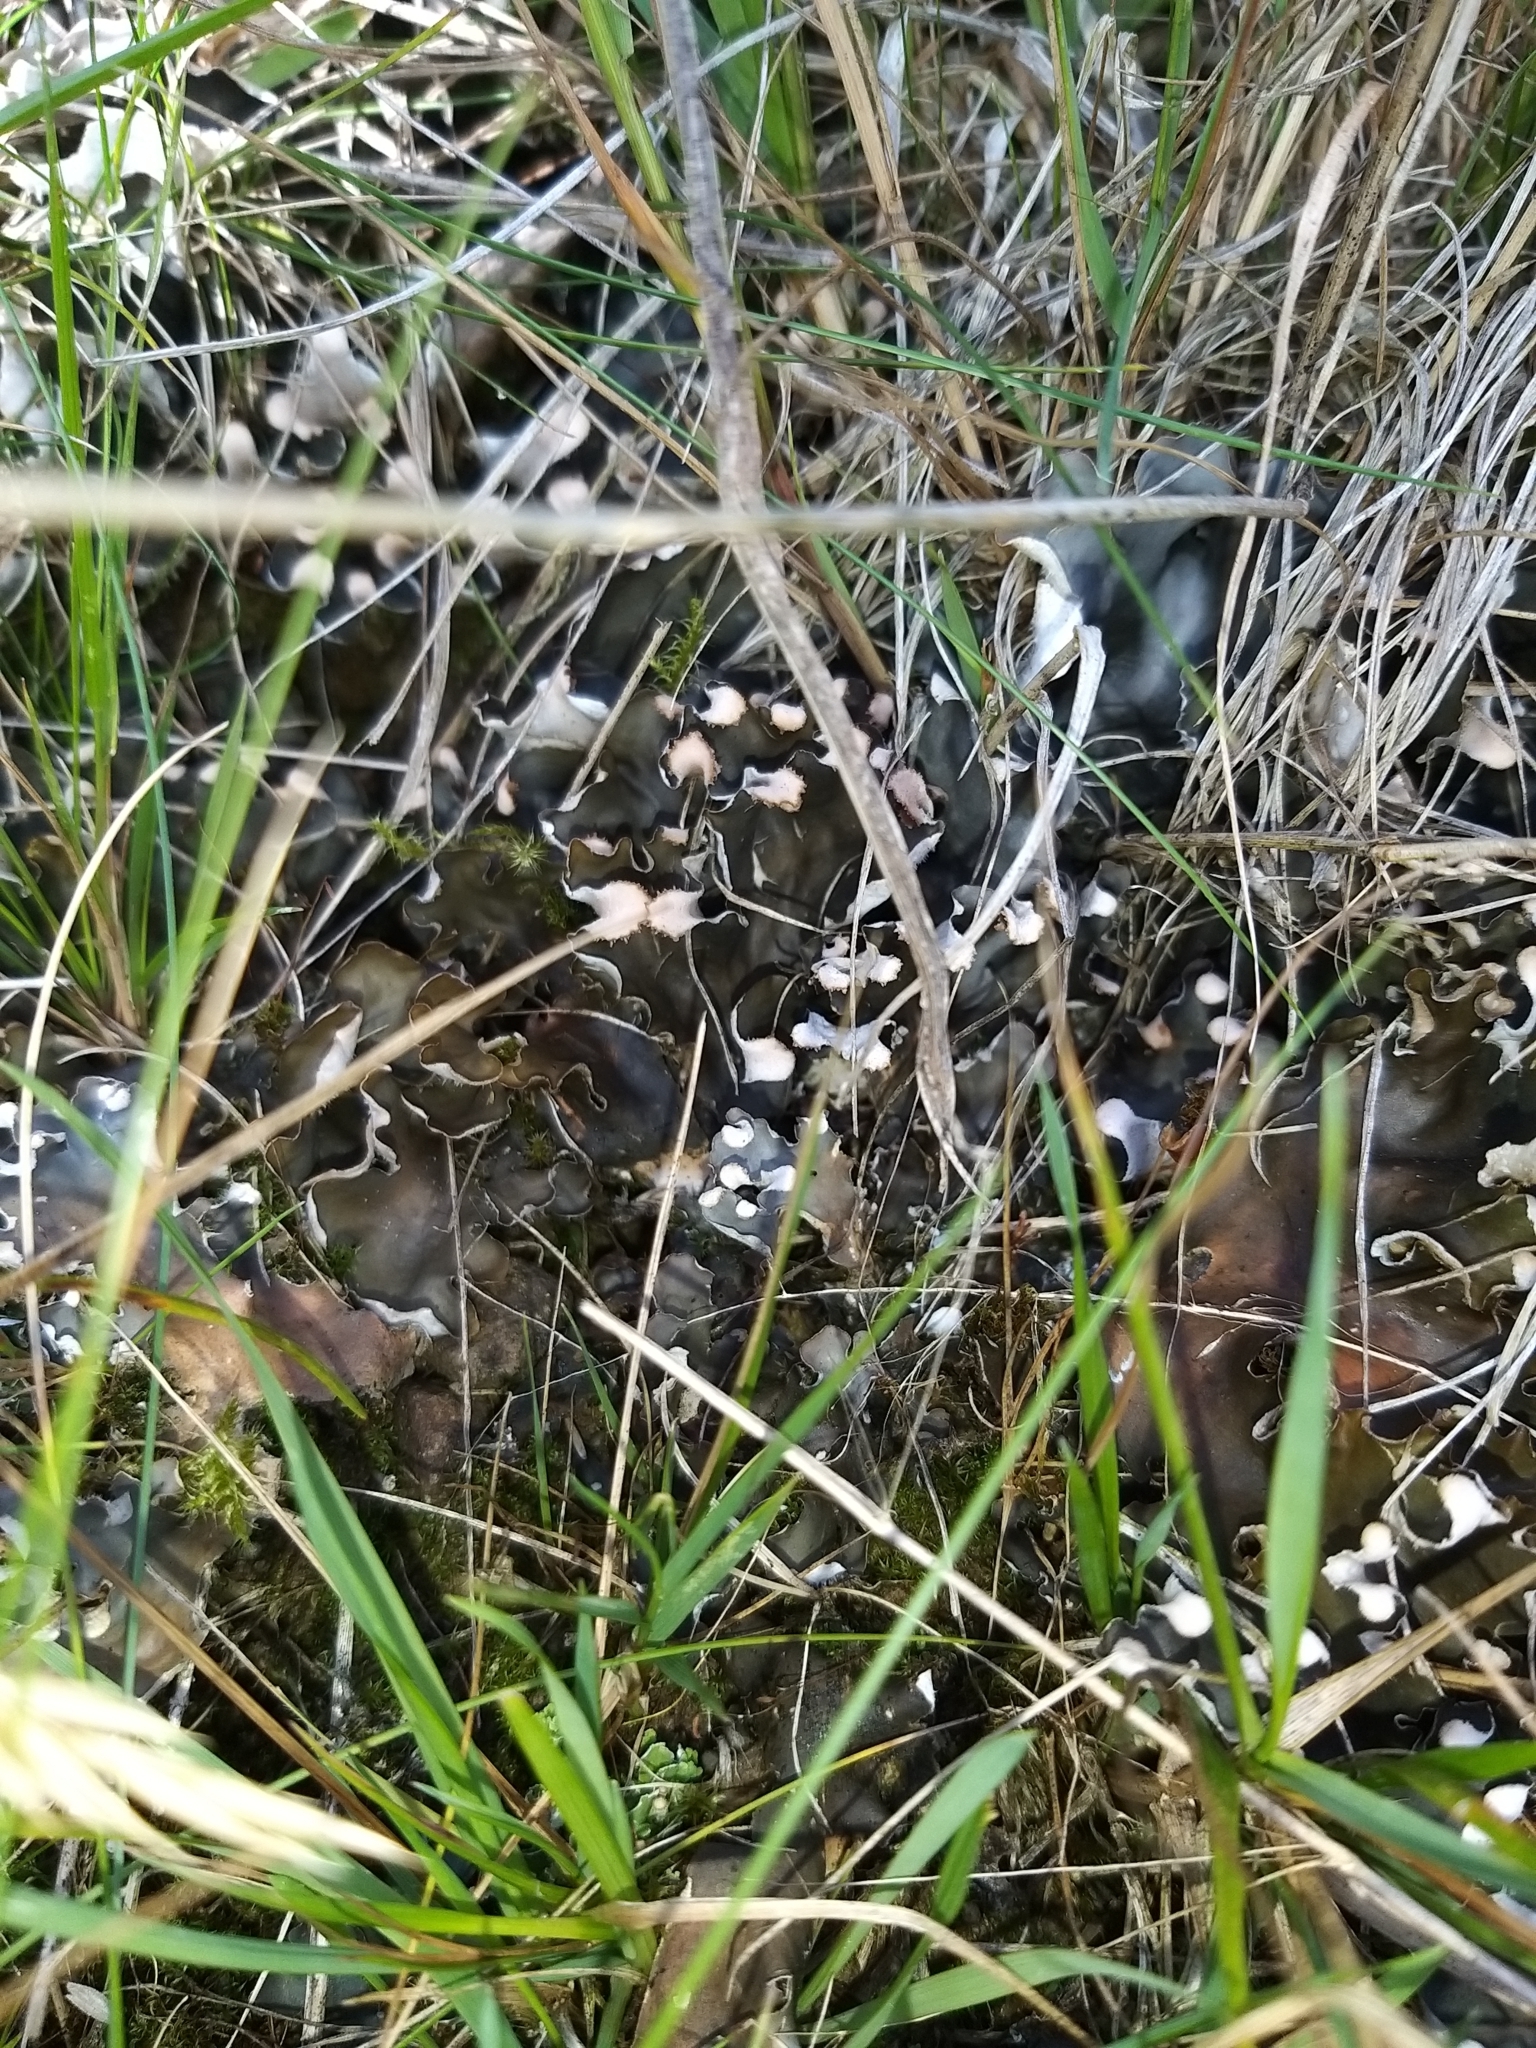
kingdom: Fungi
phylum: Ascomycota
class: Lecanoromycetes
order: Peltigerales
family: Peltigeraceae
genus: Peltigera
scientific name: Peltigera
